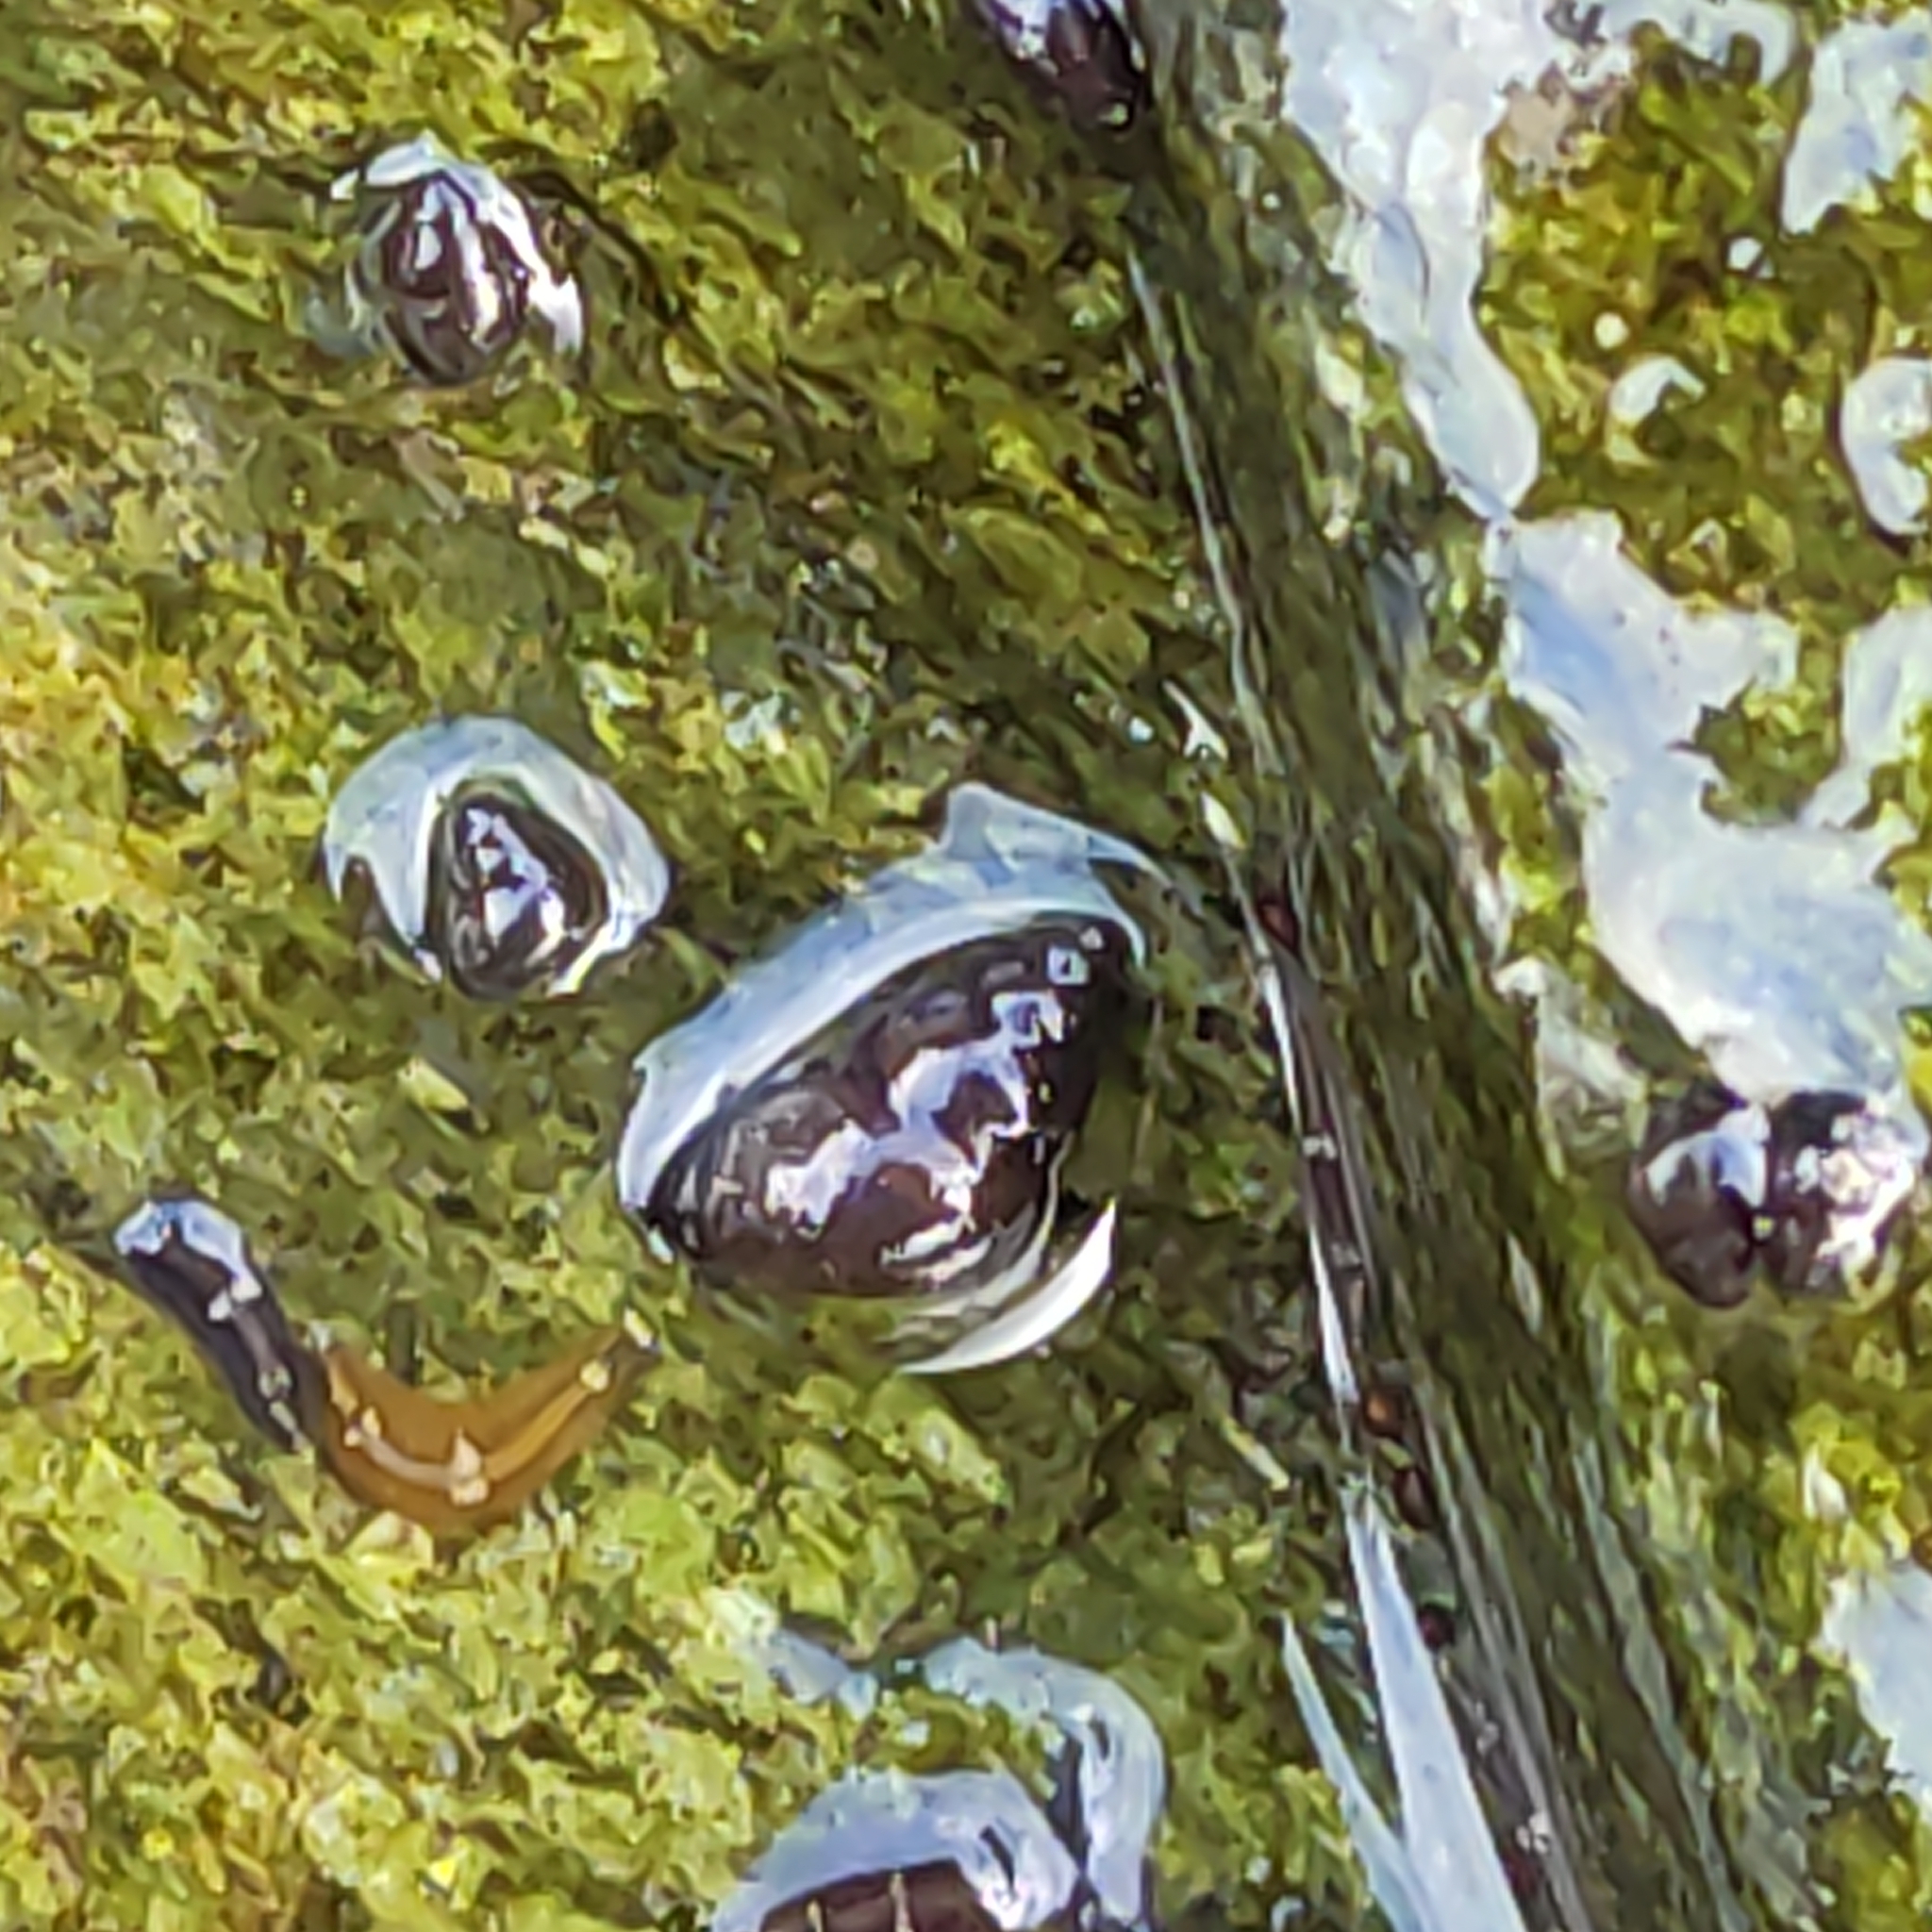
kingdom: Animalia
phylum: Mollusca
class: Gastropoda
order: Littorinimorpha
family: Tateidae
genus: Potamopyrgus
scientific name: Potamopyrgus antipodarum
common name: Jenkins' spire snail
